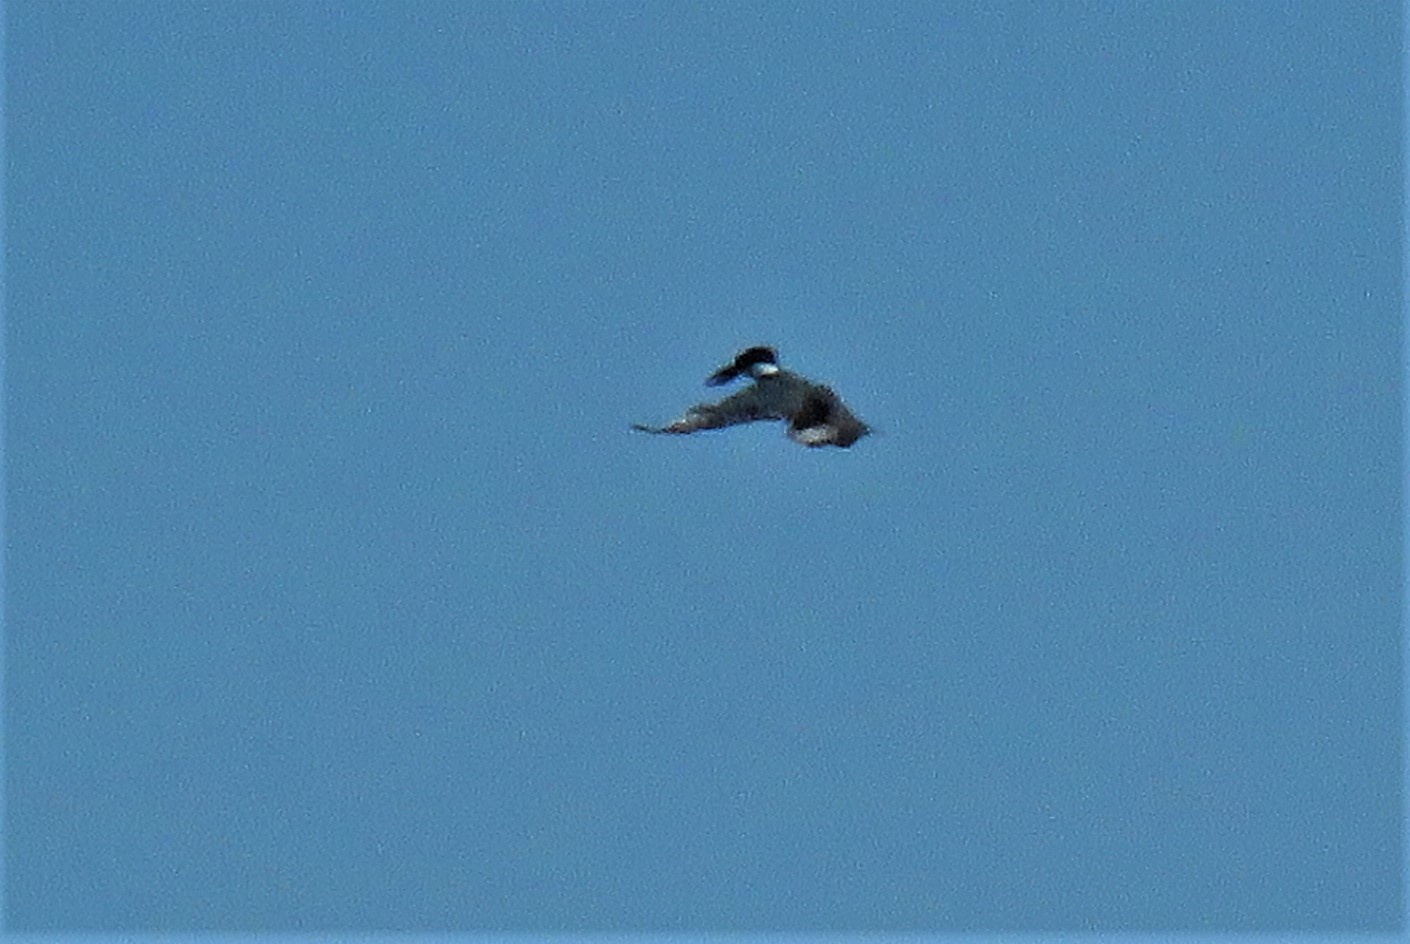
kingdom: Animalia
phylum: Chordata
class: Aves
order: Coraciiformes
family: Alcedinidae
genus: Megaceryle
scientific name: Megaceryle alcyon
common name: Belted kingfisher
